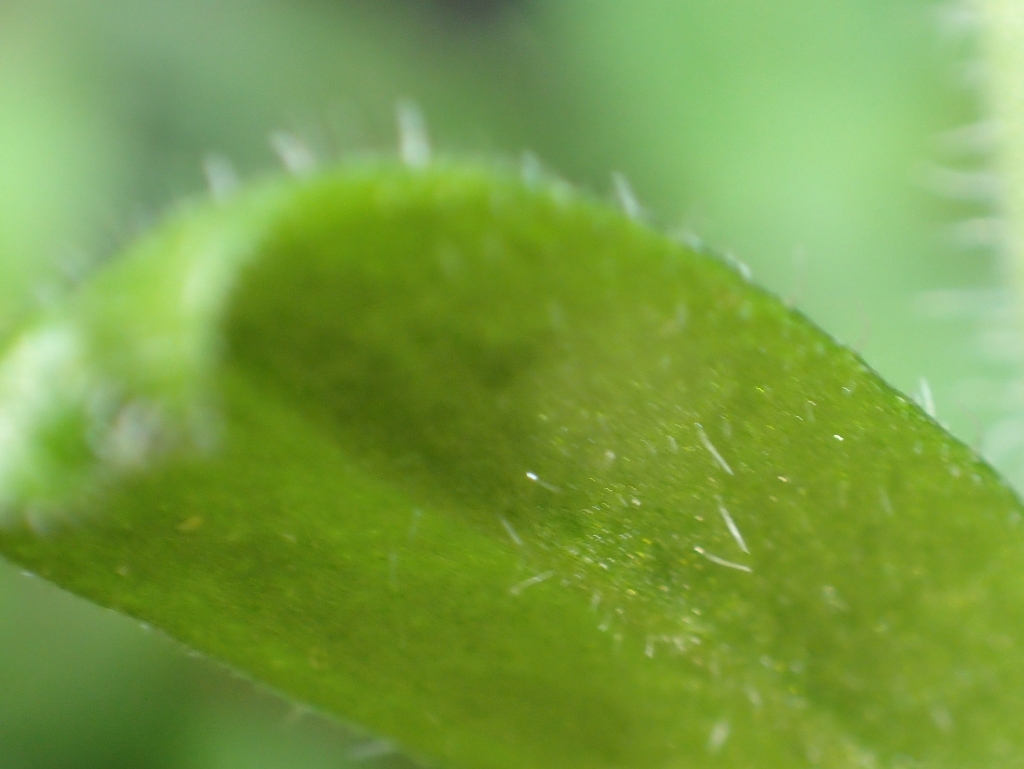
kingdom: Plantae
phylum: Tracheophyta
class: Magnoliopsida
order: Gentianales
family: Rubiaceae
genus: Galium
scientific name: Galium aparine
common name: Cleavers
